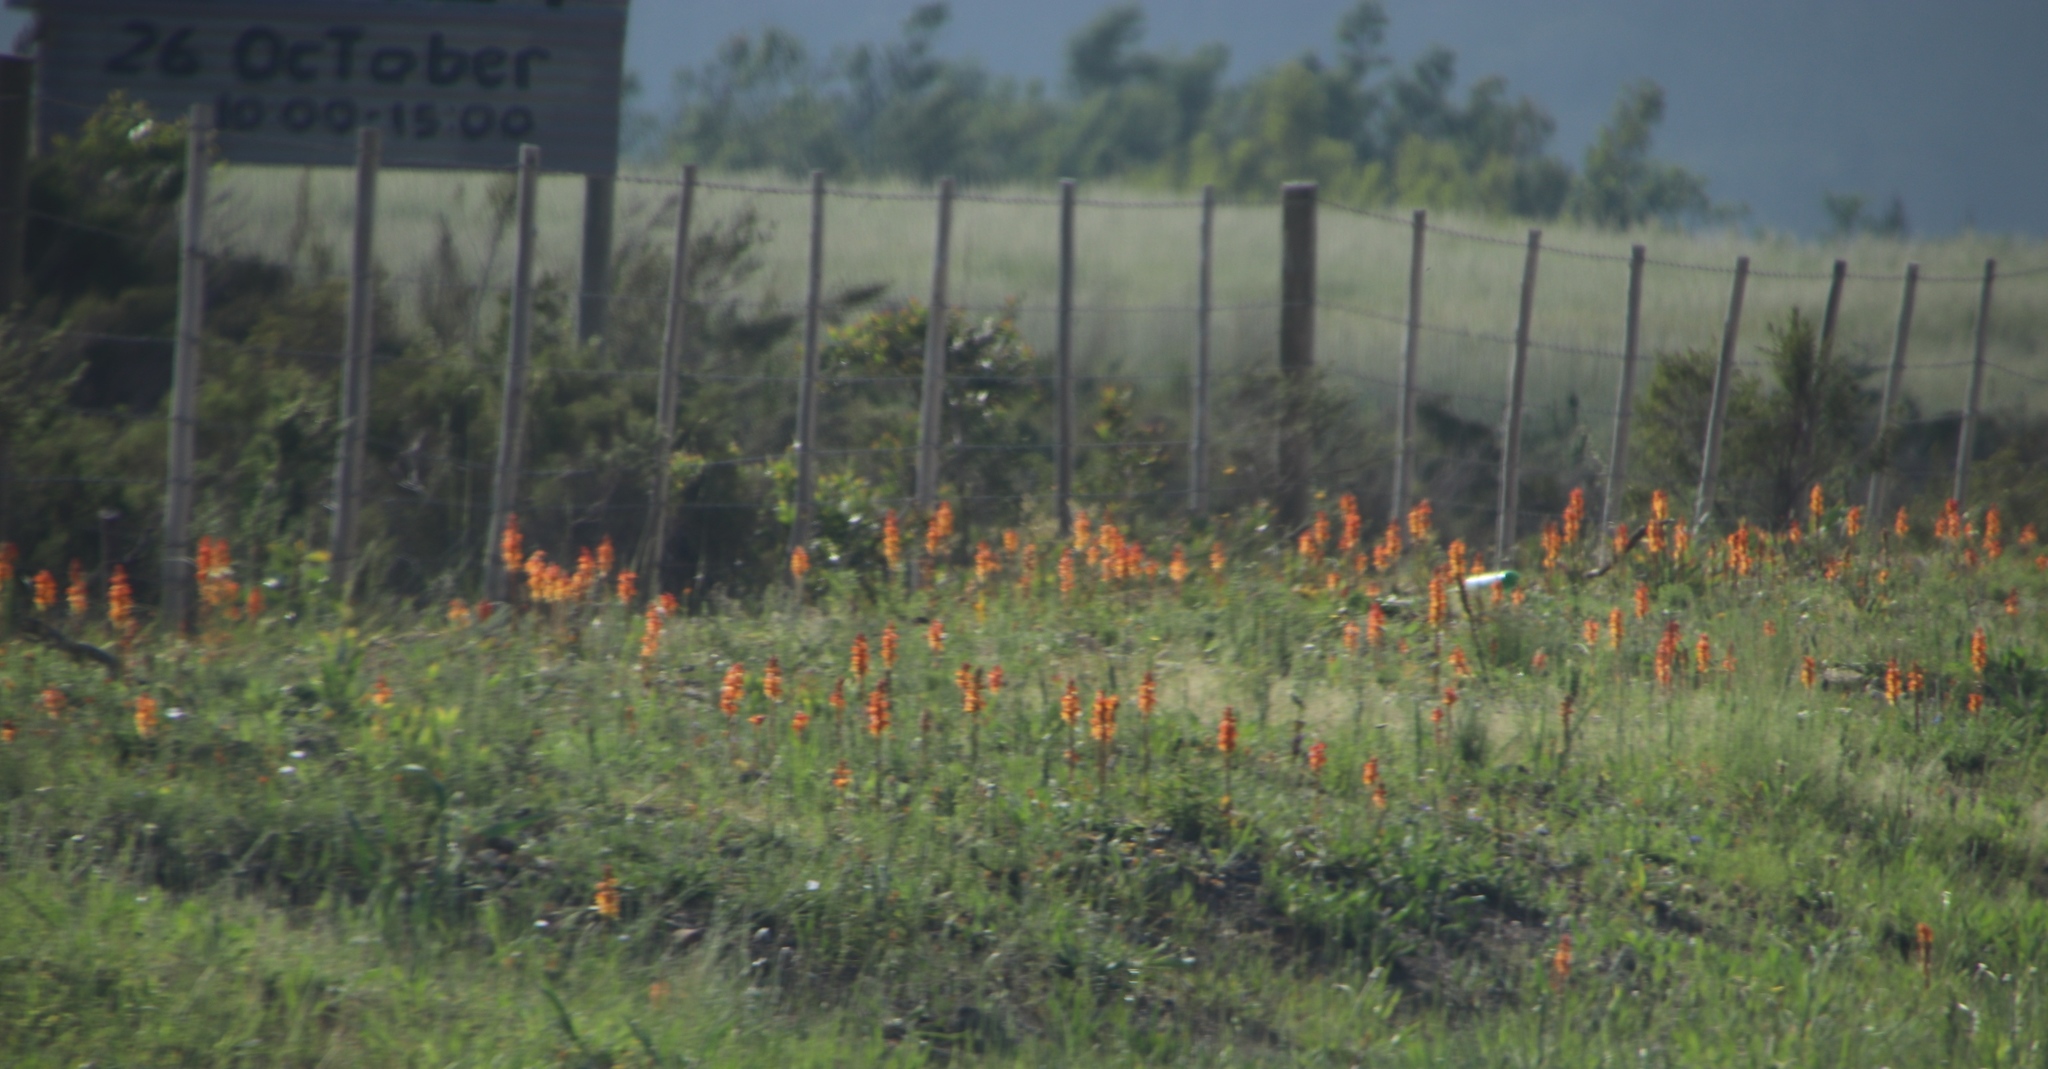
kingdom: Plantae
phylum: Tracheophyta
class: Liliopsida
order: Asparagales
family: Orchidaceae
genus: Satyrium
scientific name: Satyrium coriifolium
